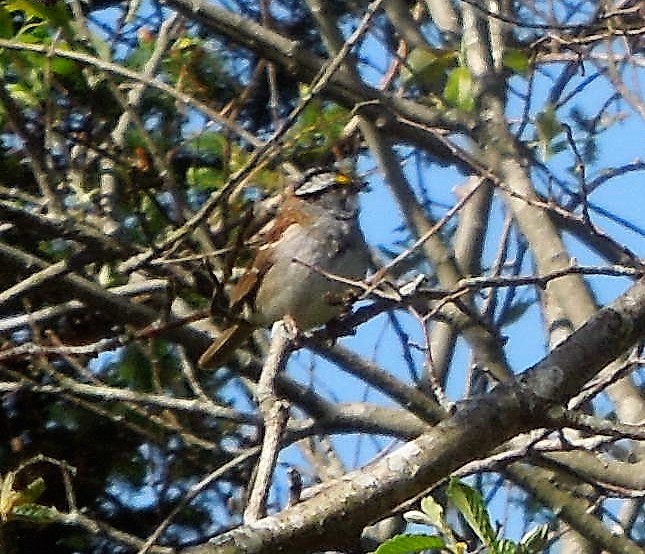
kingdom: Animalia
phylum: Chordata
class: Aves
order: Passeriformes
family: Passerellidae
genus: Zonotrichia
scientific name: Zonotrichia albicollis
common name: White-throated sparrow
